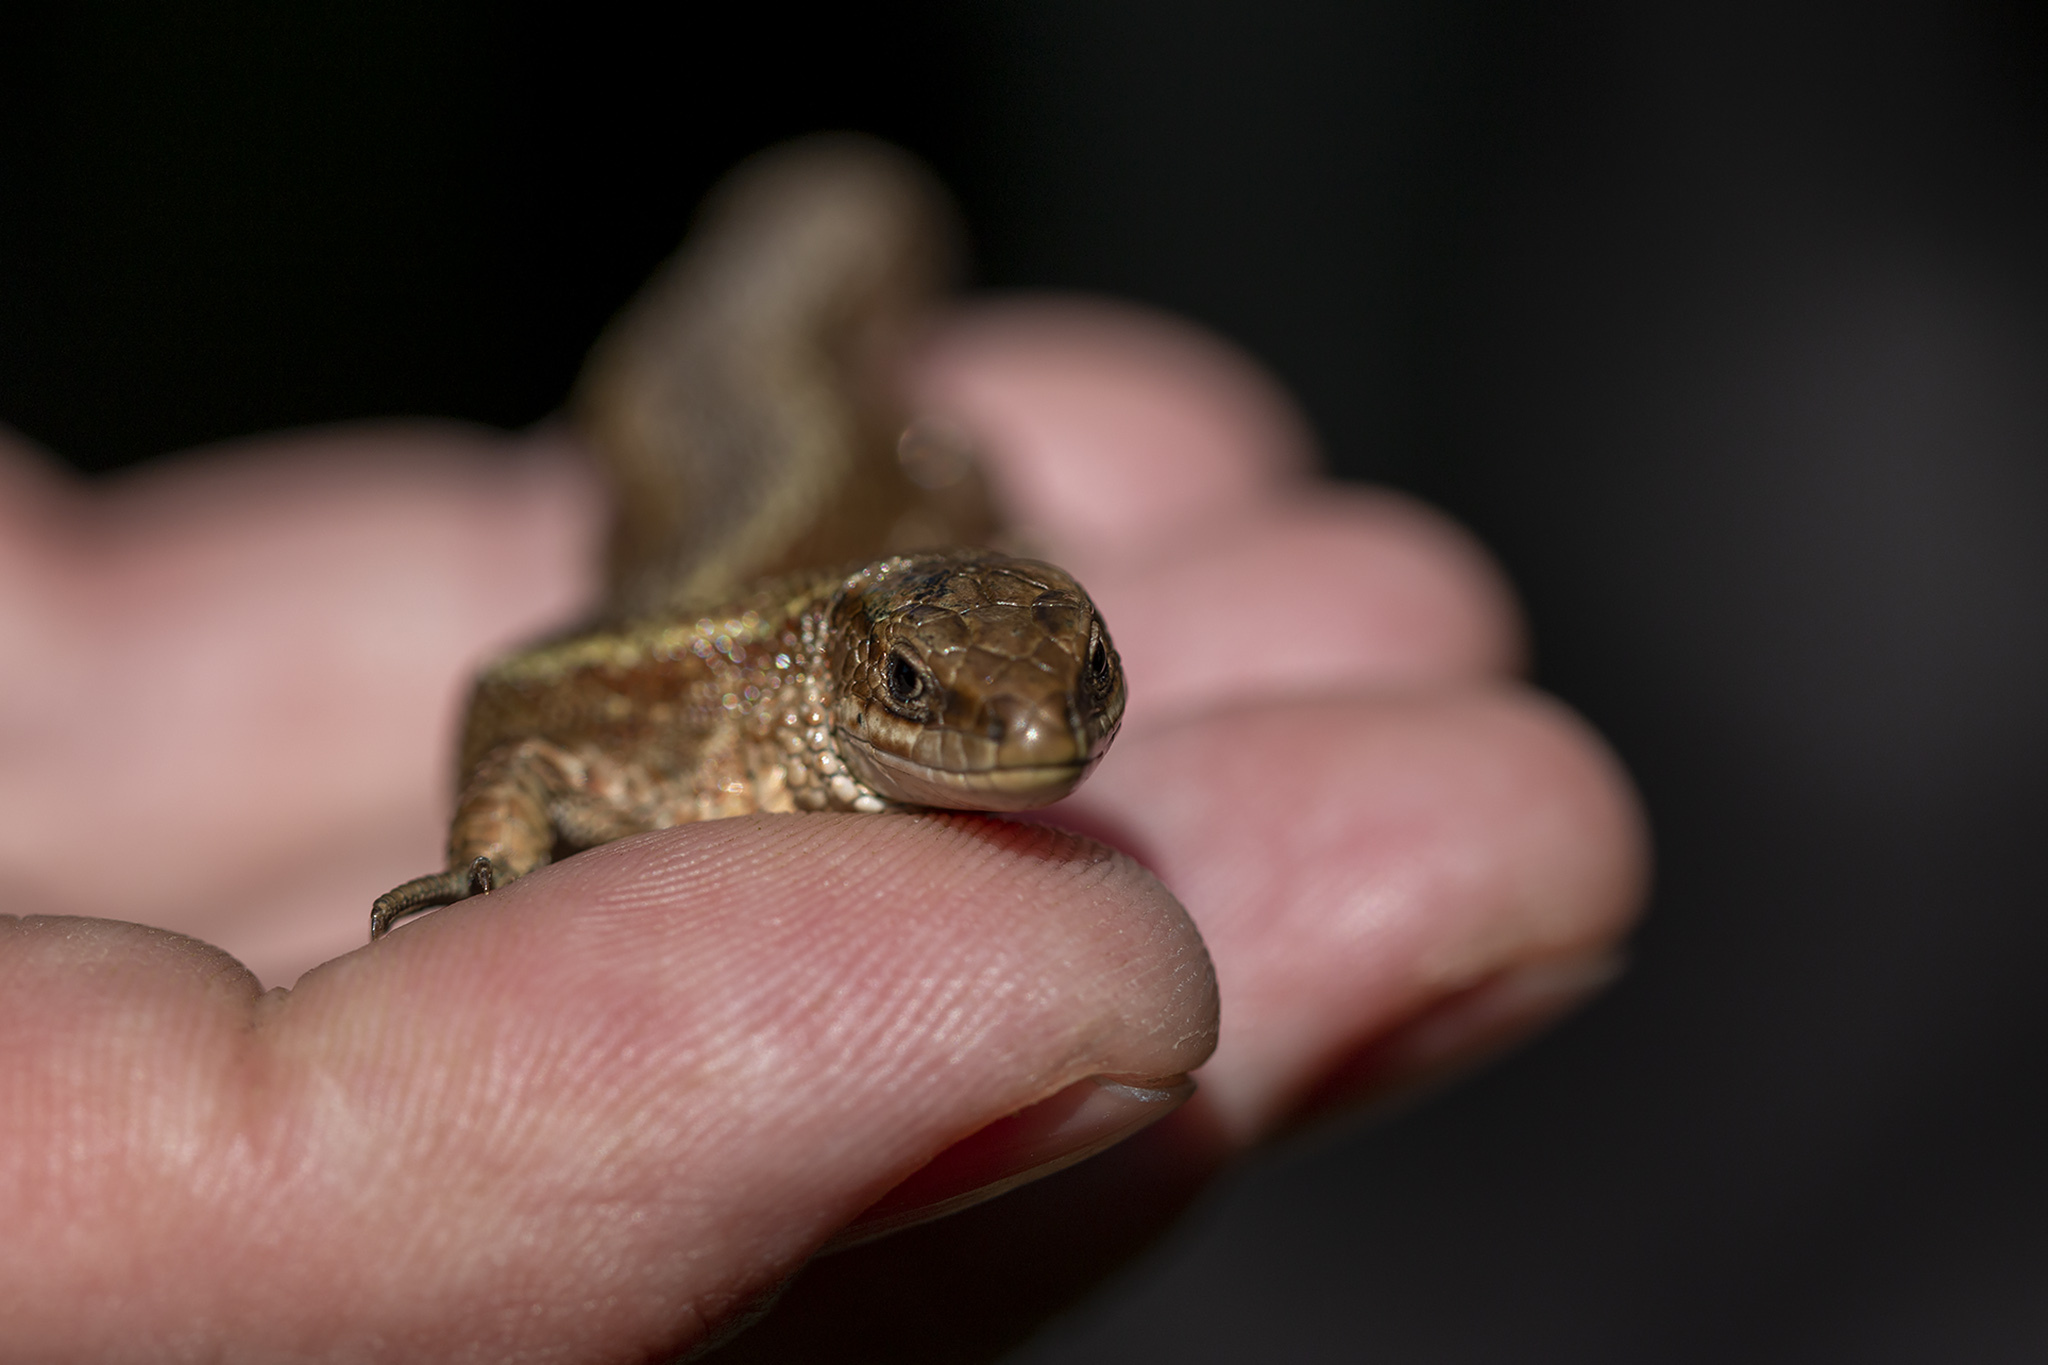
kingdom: Animalia
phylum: Chordata
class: Squamata
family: Lacertidae
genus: Zootoca
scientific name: Zootoca vivipara
